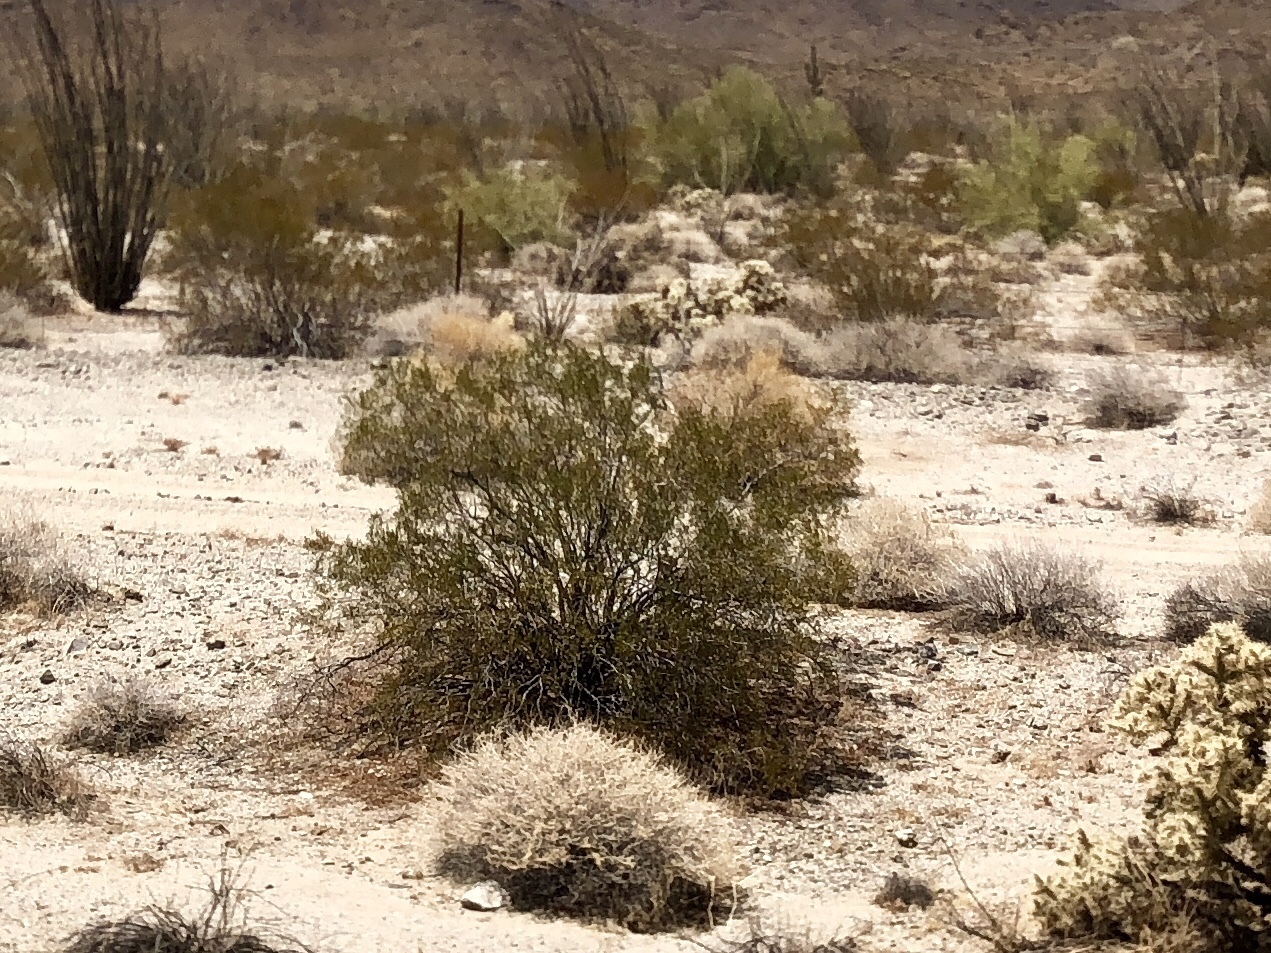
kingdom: Plantae
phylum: Tracheophyta
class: Magnoliopsida
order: Zygophyllales
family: Zygophyllaceae
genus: Larrea
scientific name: Larrea tridentata
